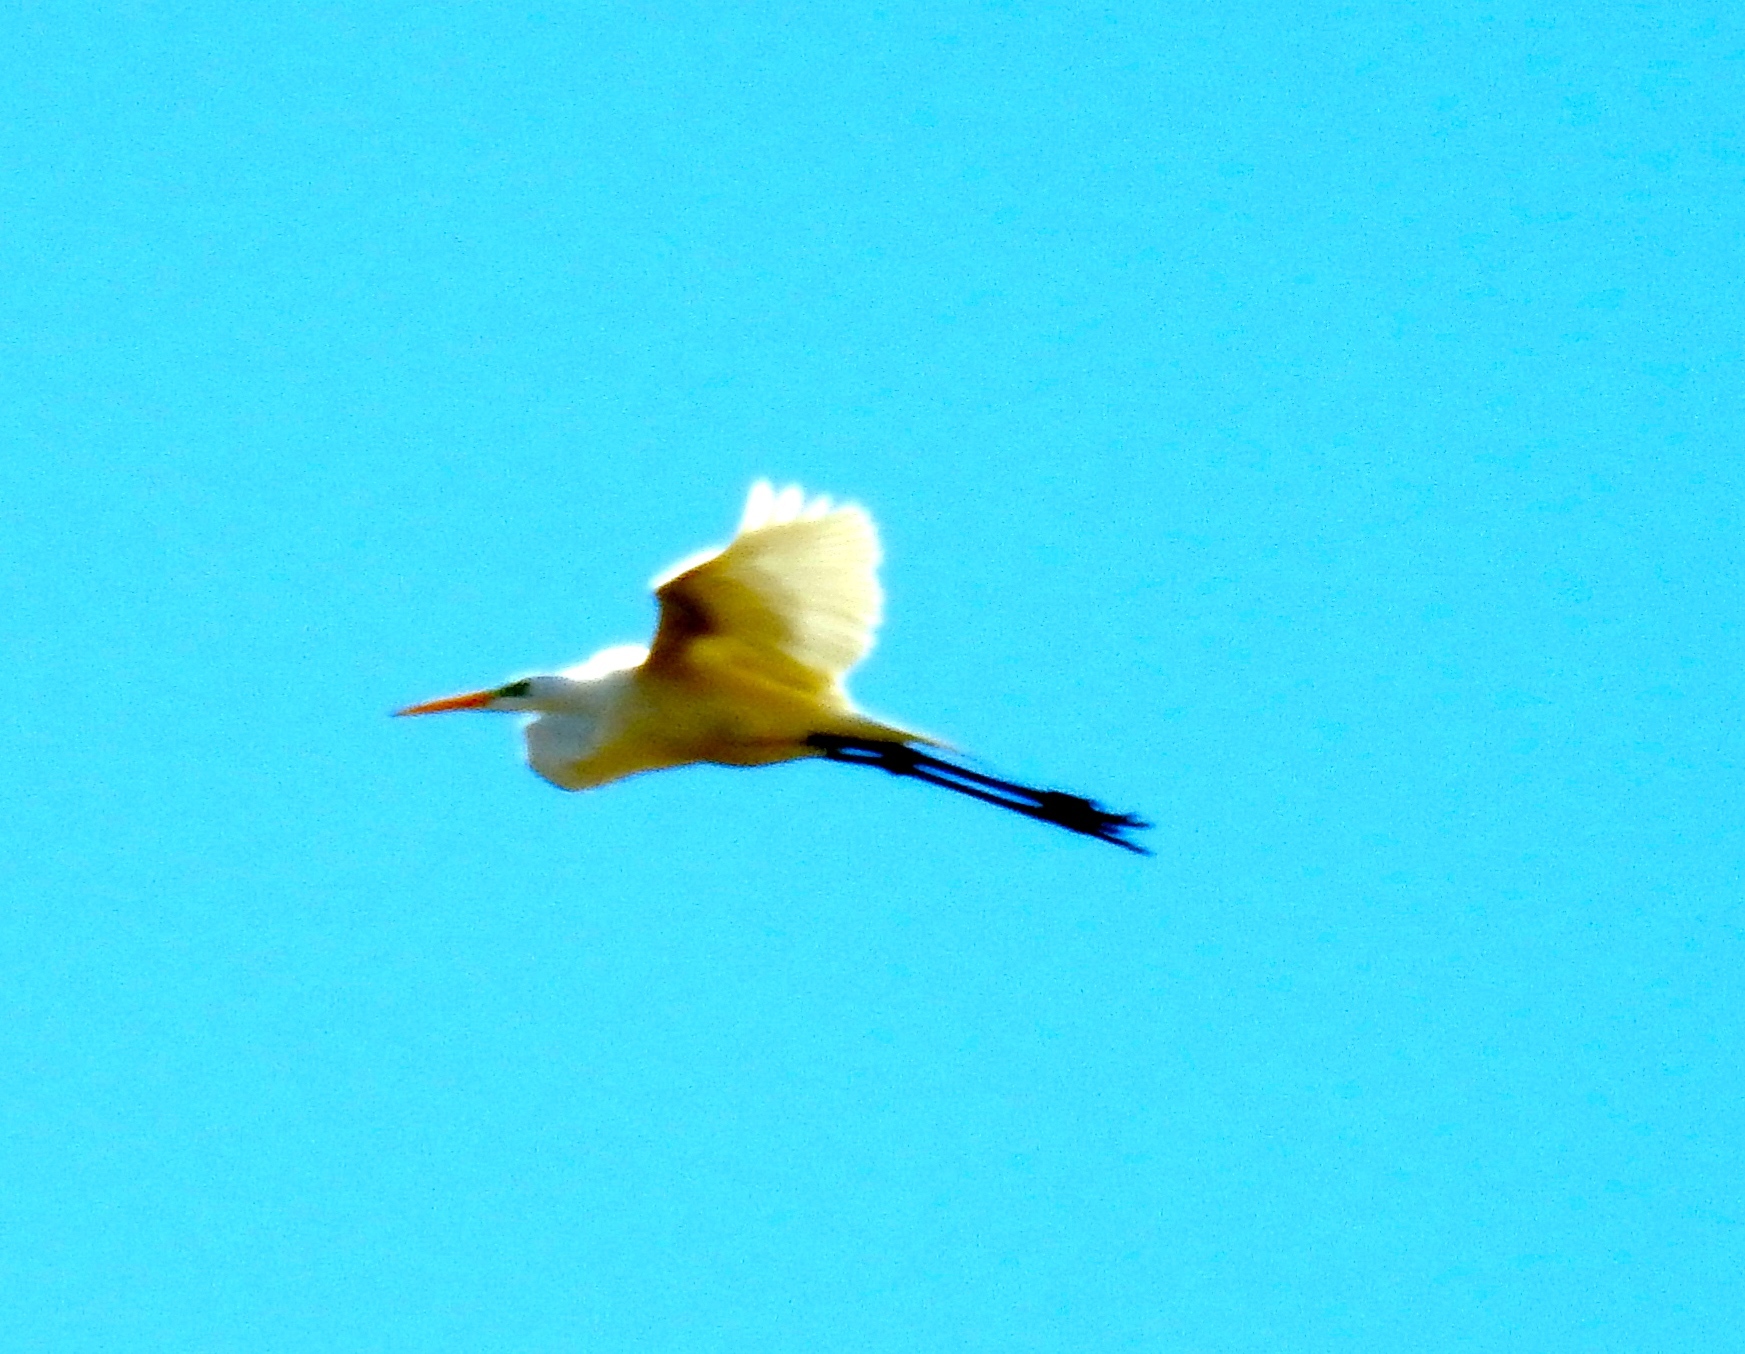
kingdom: Animalia
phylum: Chordata
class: Aves
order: Pelecaniformes
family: Ardeidae
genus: Ardea
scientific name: Ardea alba
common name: Great egret
